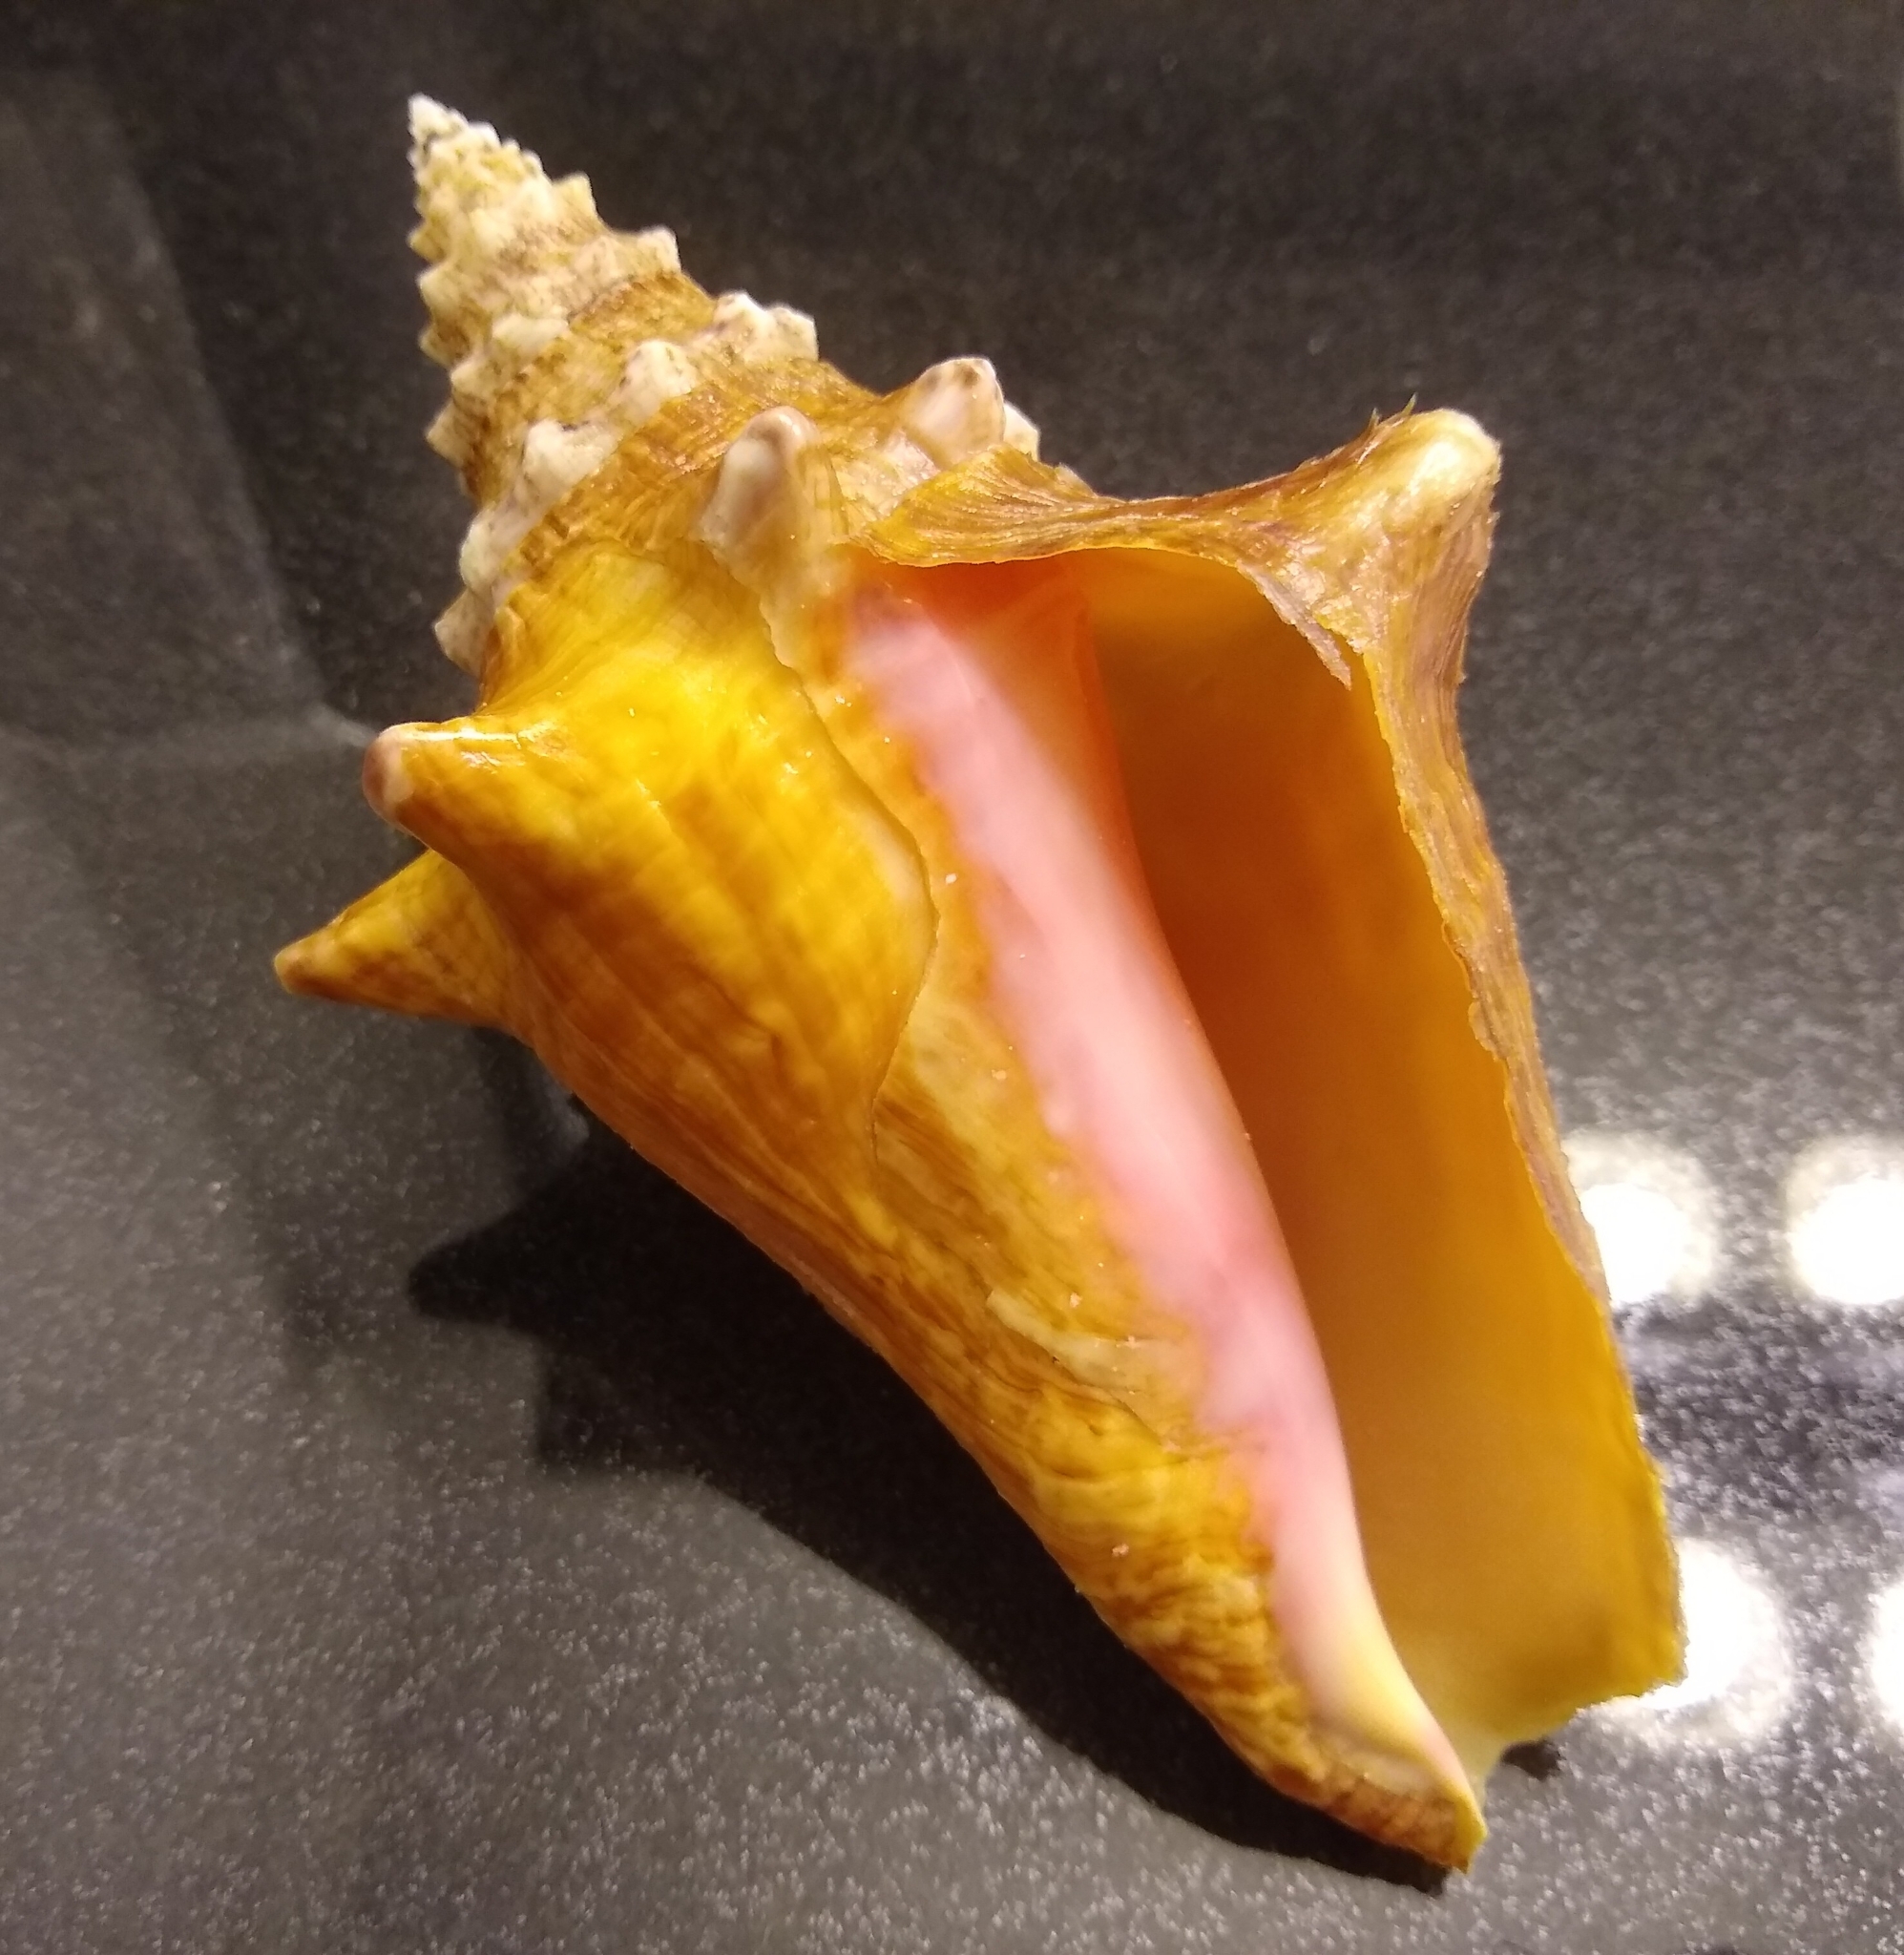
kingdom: Animalia
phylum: Mollusca
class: Gastropoda
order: Littorinimorpha
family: Strombidae
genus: Aliger
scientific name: Aliger gigas
